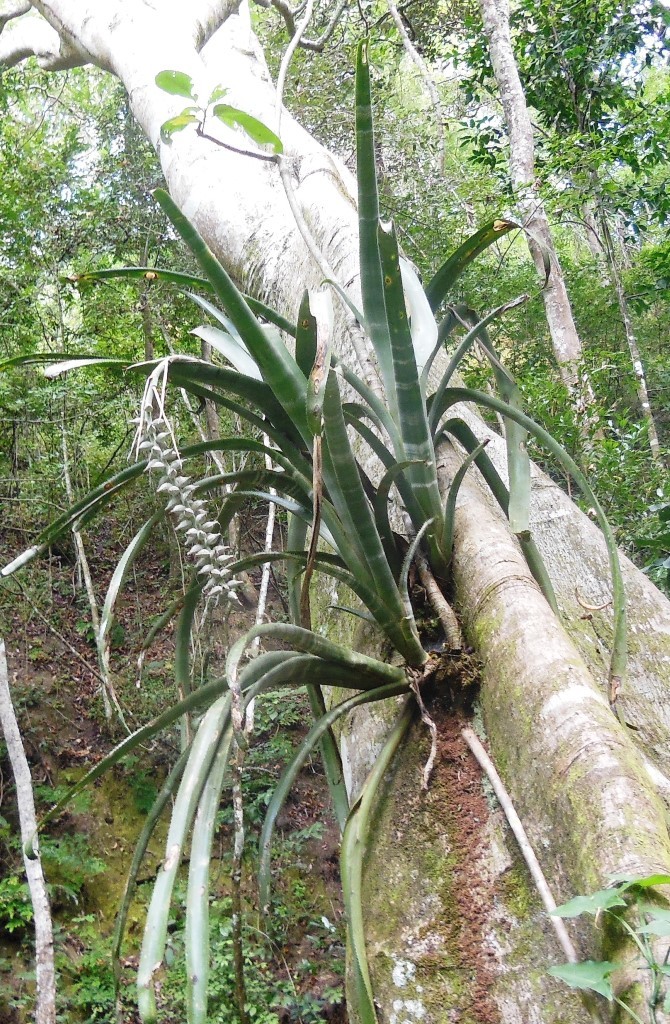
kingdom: Plantae
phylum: Tracheophyta
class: Liliopsida
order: Poales
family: Bromeliaceae
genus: Billbergia
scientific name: Billbergia pallidiflora
